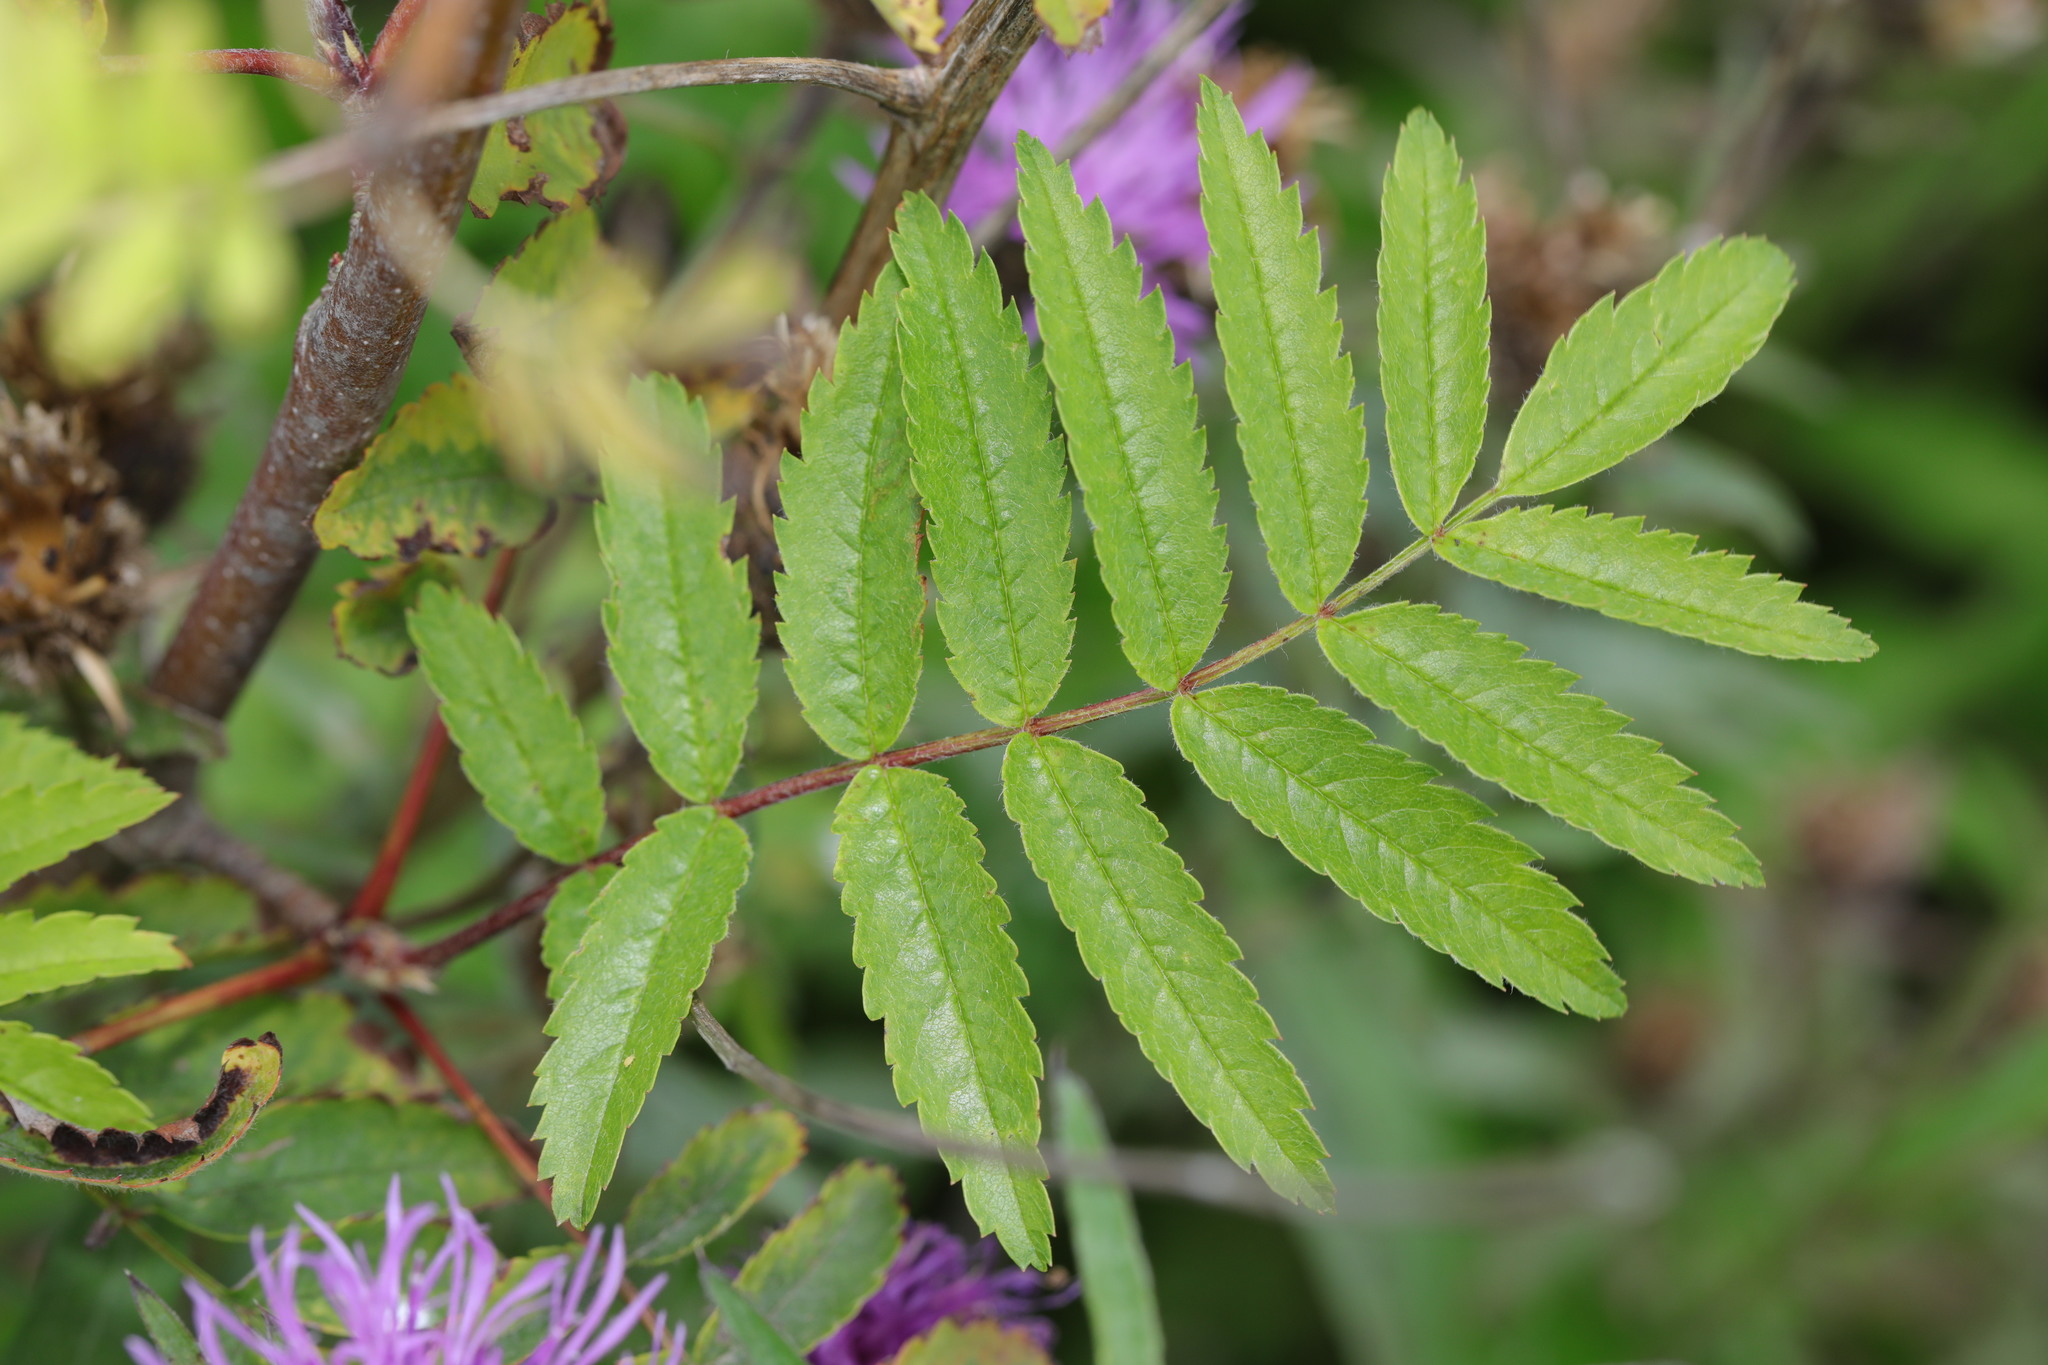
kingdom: Plantae
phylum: Tracheophyta
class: Magnoliopsida
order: Rosales
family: Rosaceae
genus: Sorbus
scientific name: Sorbus aucuparia
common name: Rowan
